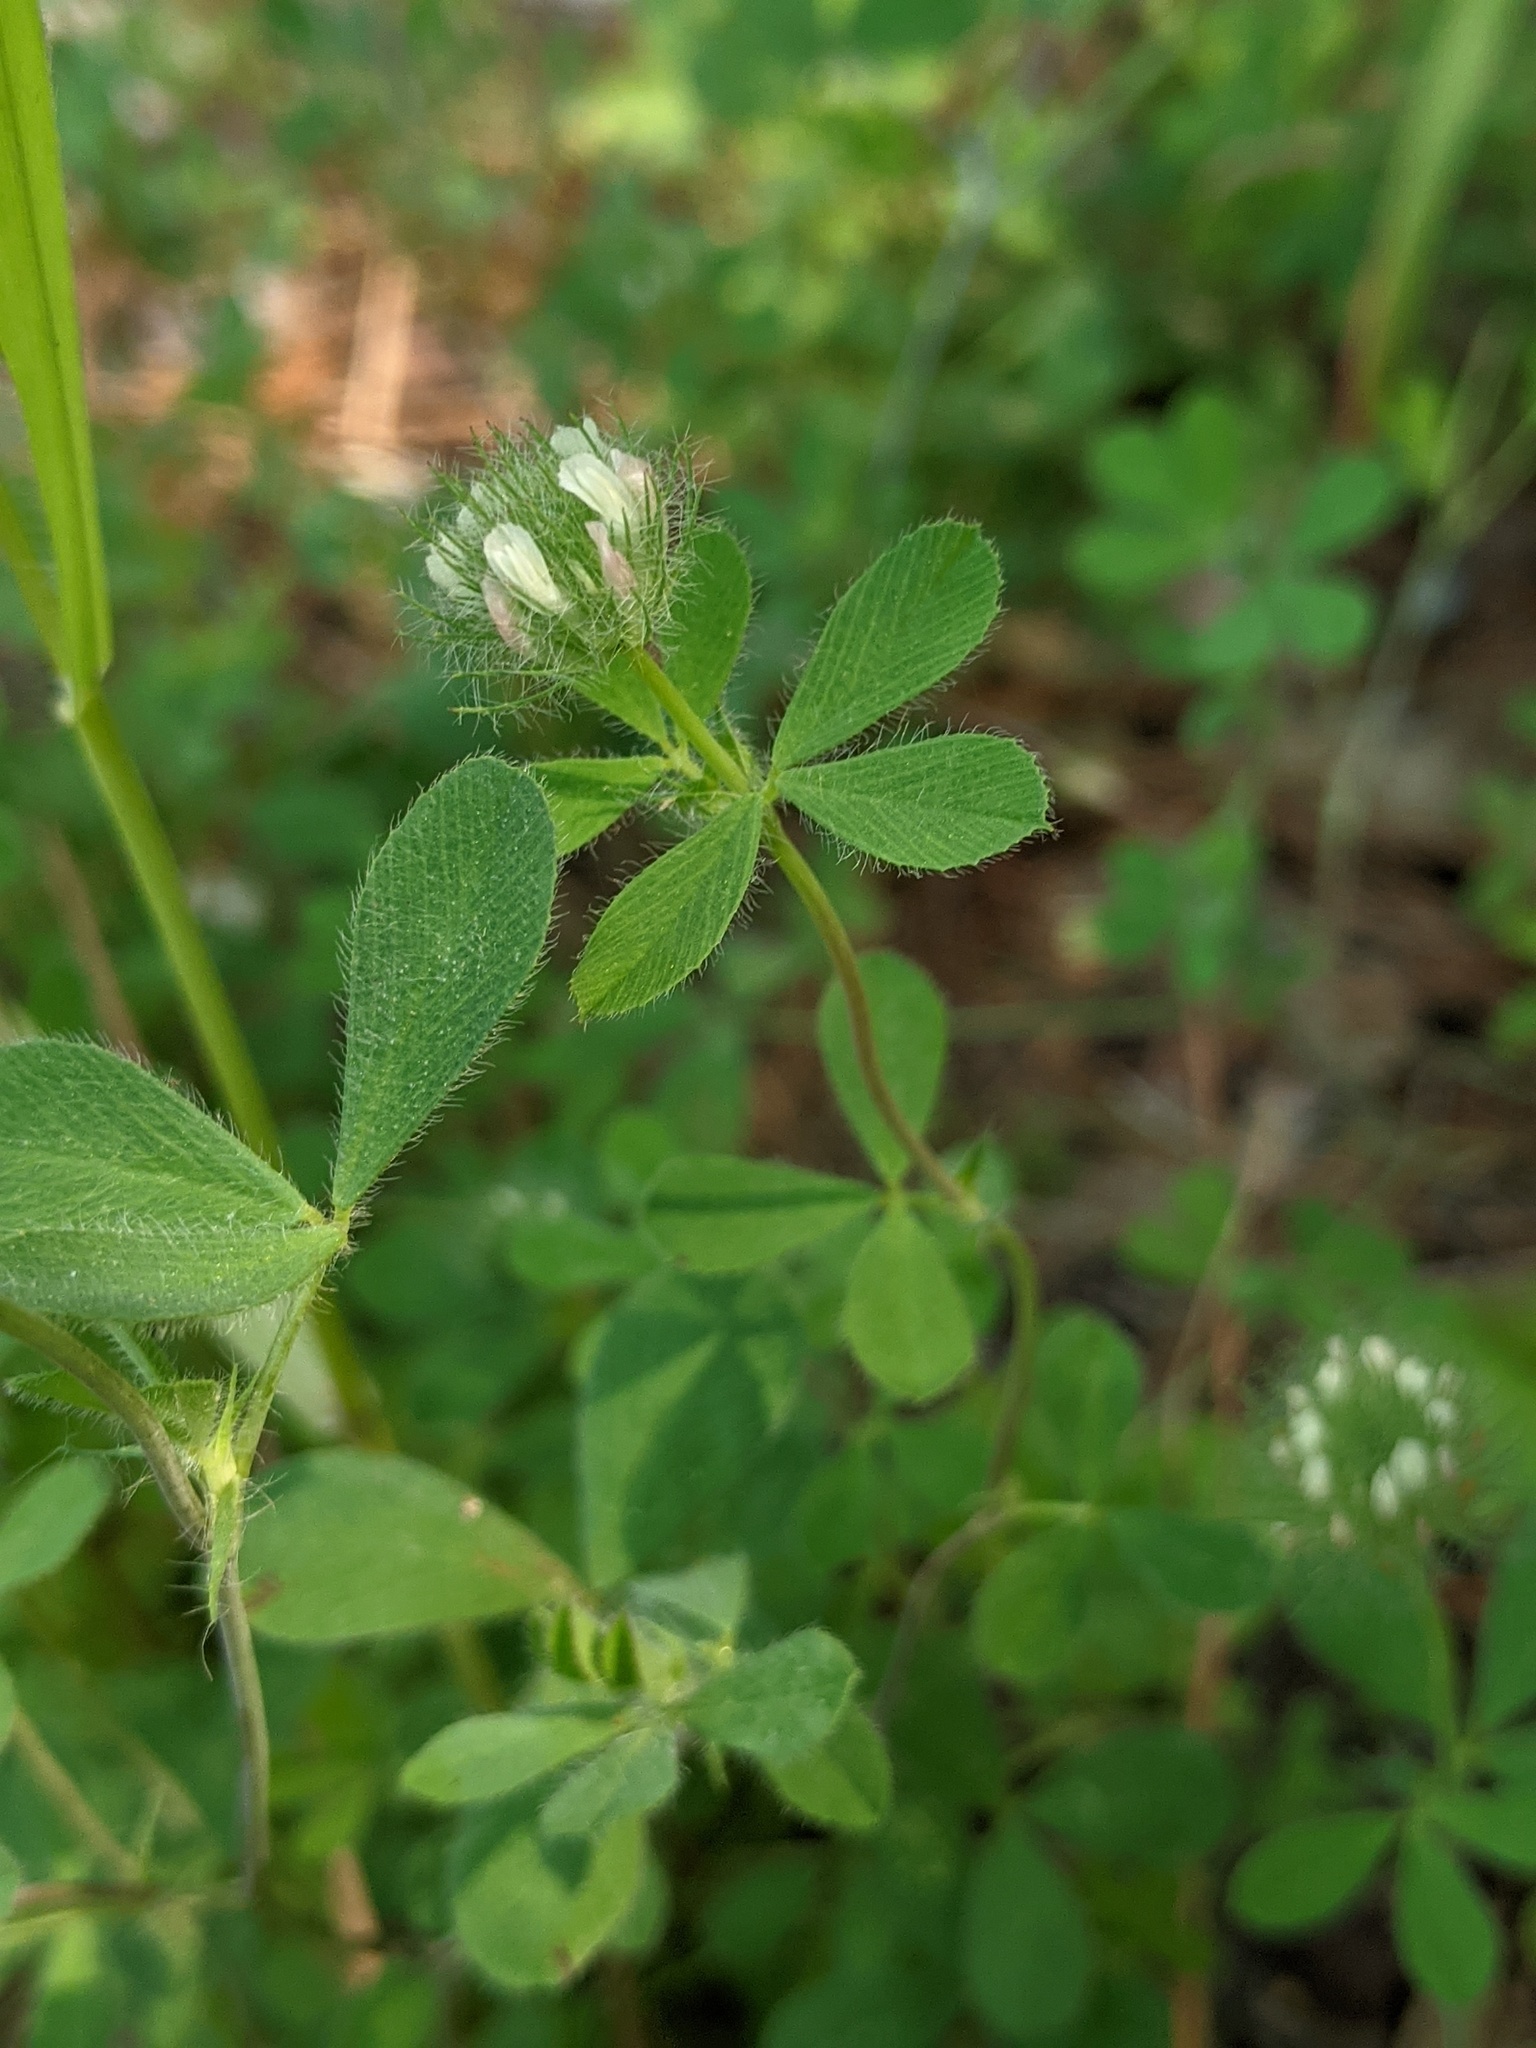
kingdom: Plantae
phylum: Tracheophyta
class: Magnoliopsida
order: Fabales
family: Fabaceae
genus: Trifolium
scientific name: Trifolium lappaceum
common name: Bur clover
